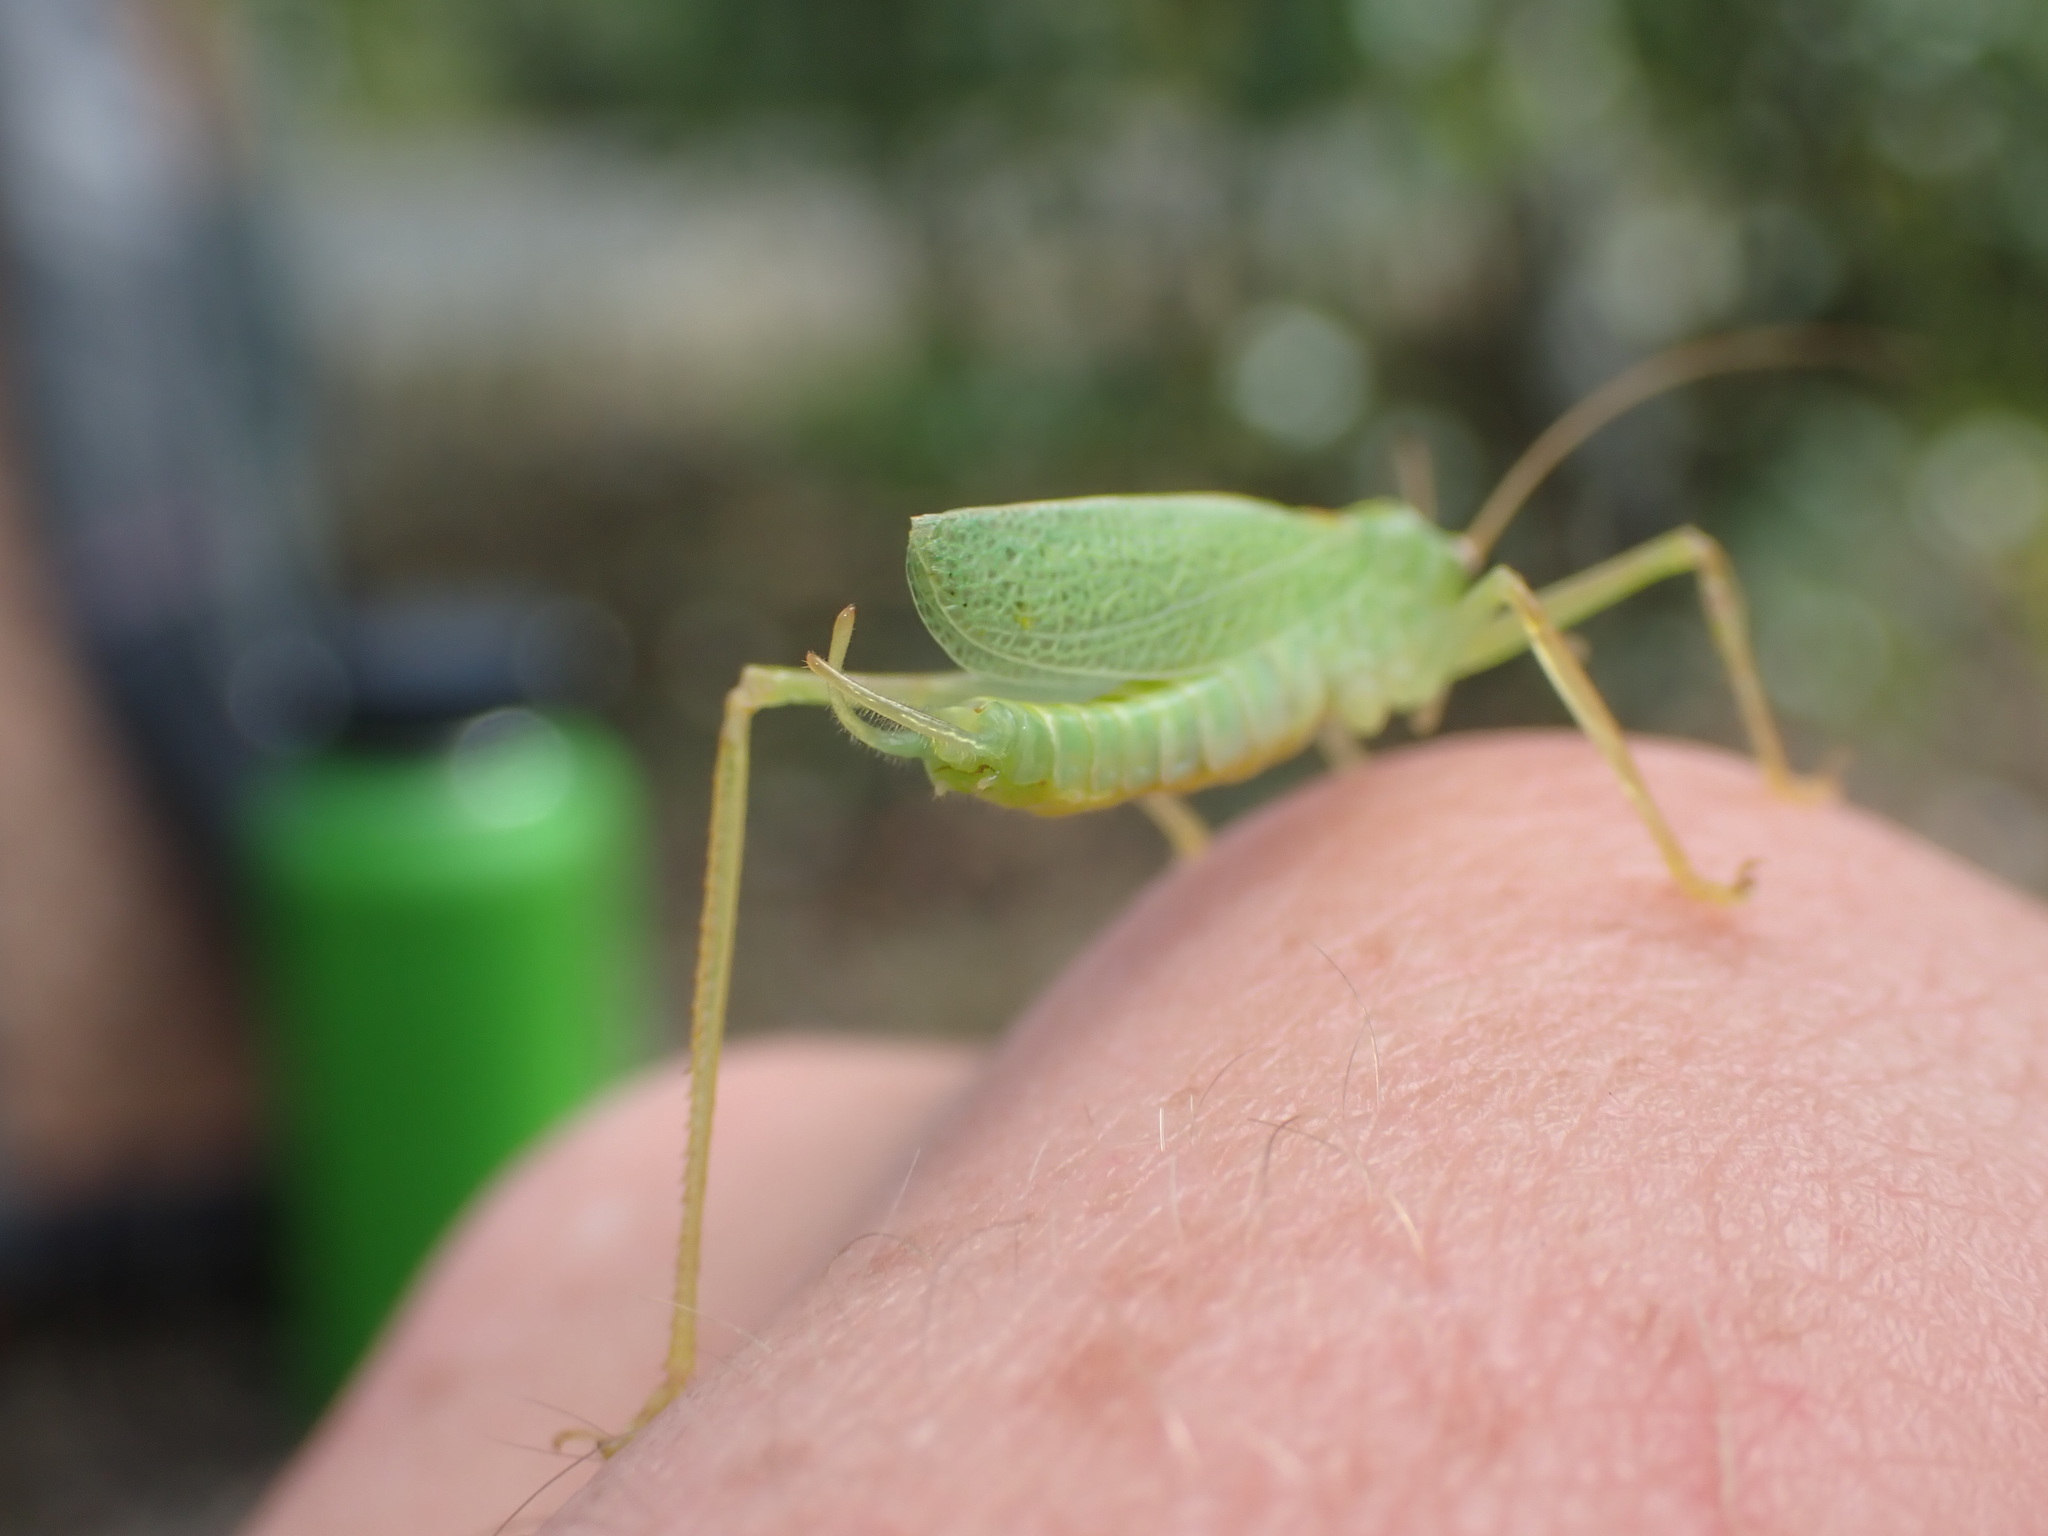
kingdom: Animalia
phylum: Arthropoda
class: Insecta
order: Orthoptera
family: Tettigoniidae
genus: Meconema
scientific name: Meconema thalassinum
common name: Oak bush-cricket
